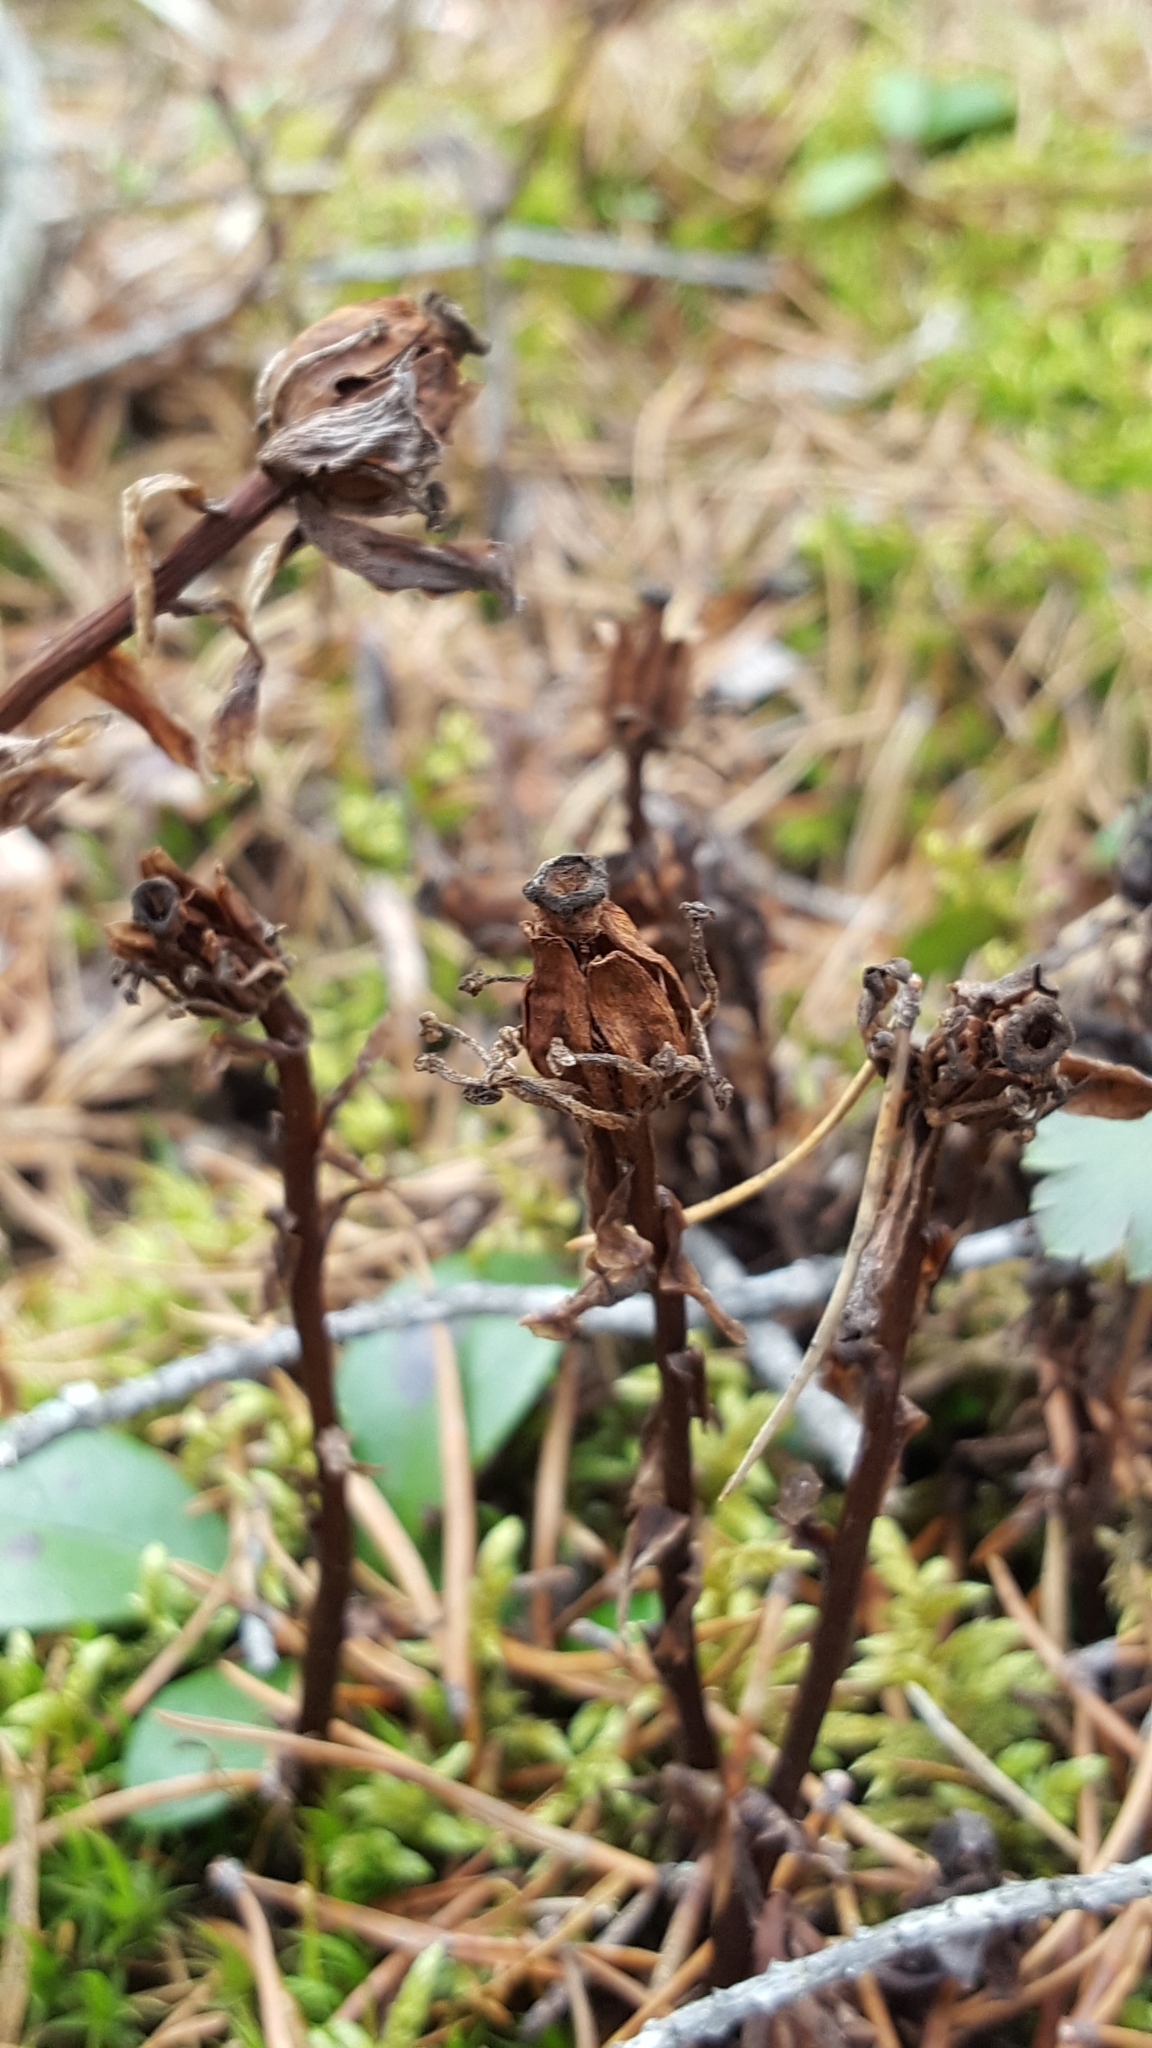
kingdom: Plantae
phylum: Tracheophyta
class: Magnoliopsida
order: Ericales
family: Ericaceae
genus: Monotropa
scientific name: Monotropa uniflora
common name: Convulsion root
